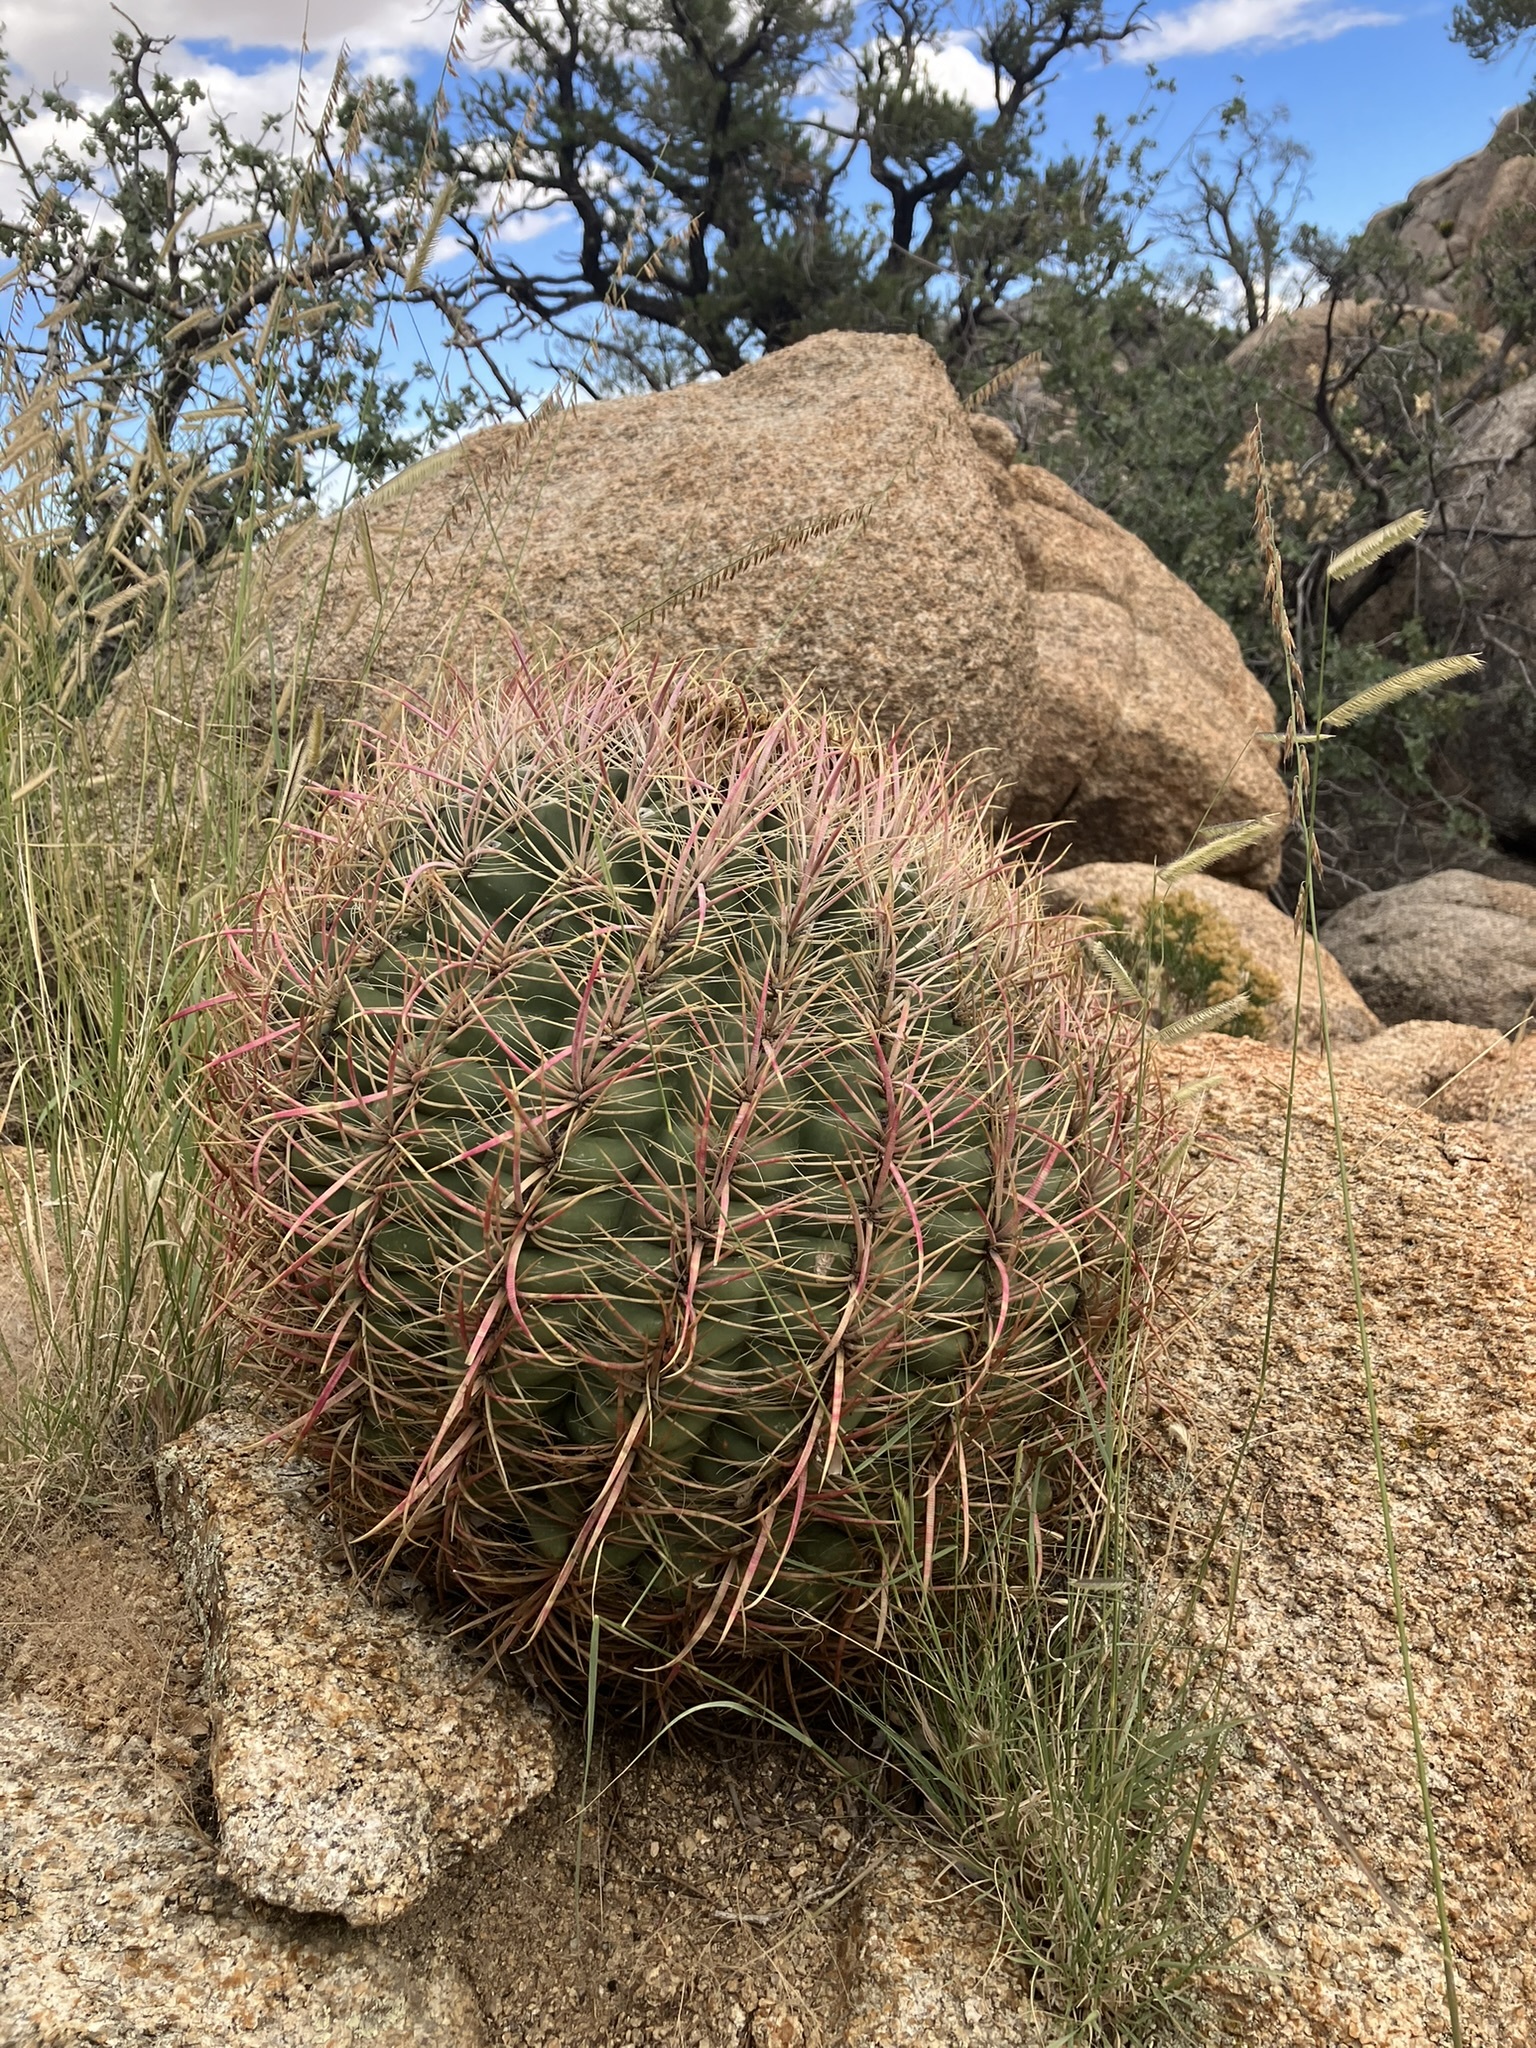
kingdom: Plantae
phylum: Tracheophyta
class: Magnoliopsida
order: Caryophyllales
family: Cactaceae
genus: Ferocactus
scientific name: Ferocactus cylindraceus
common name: California barrel cactus
